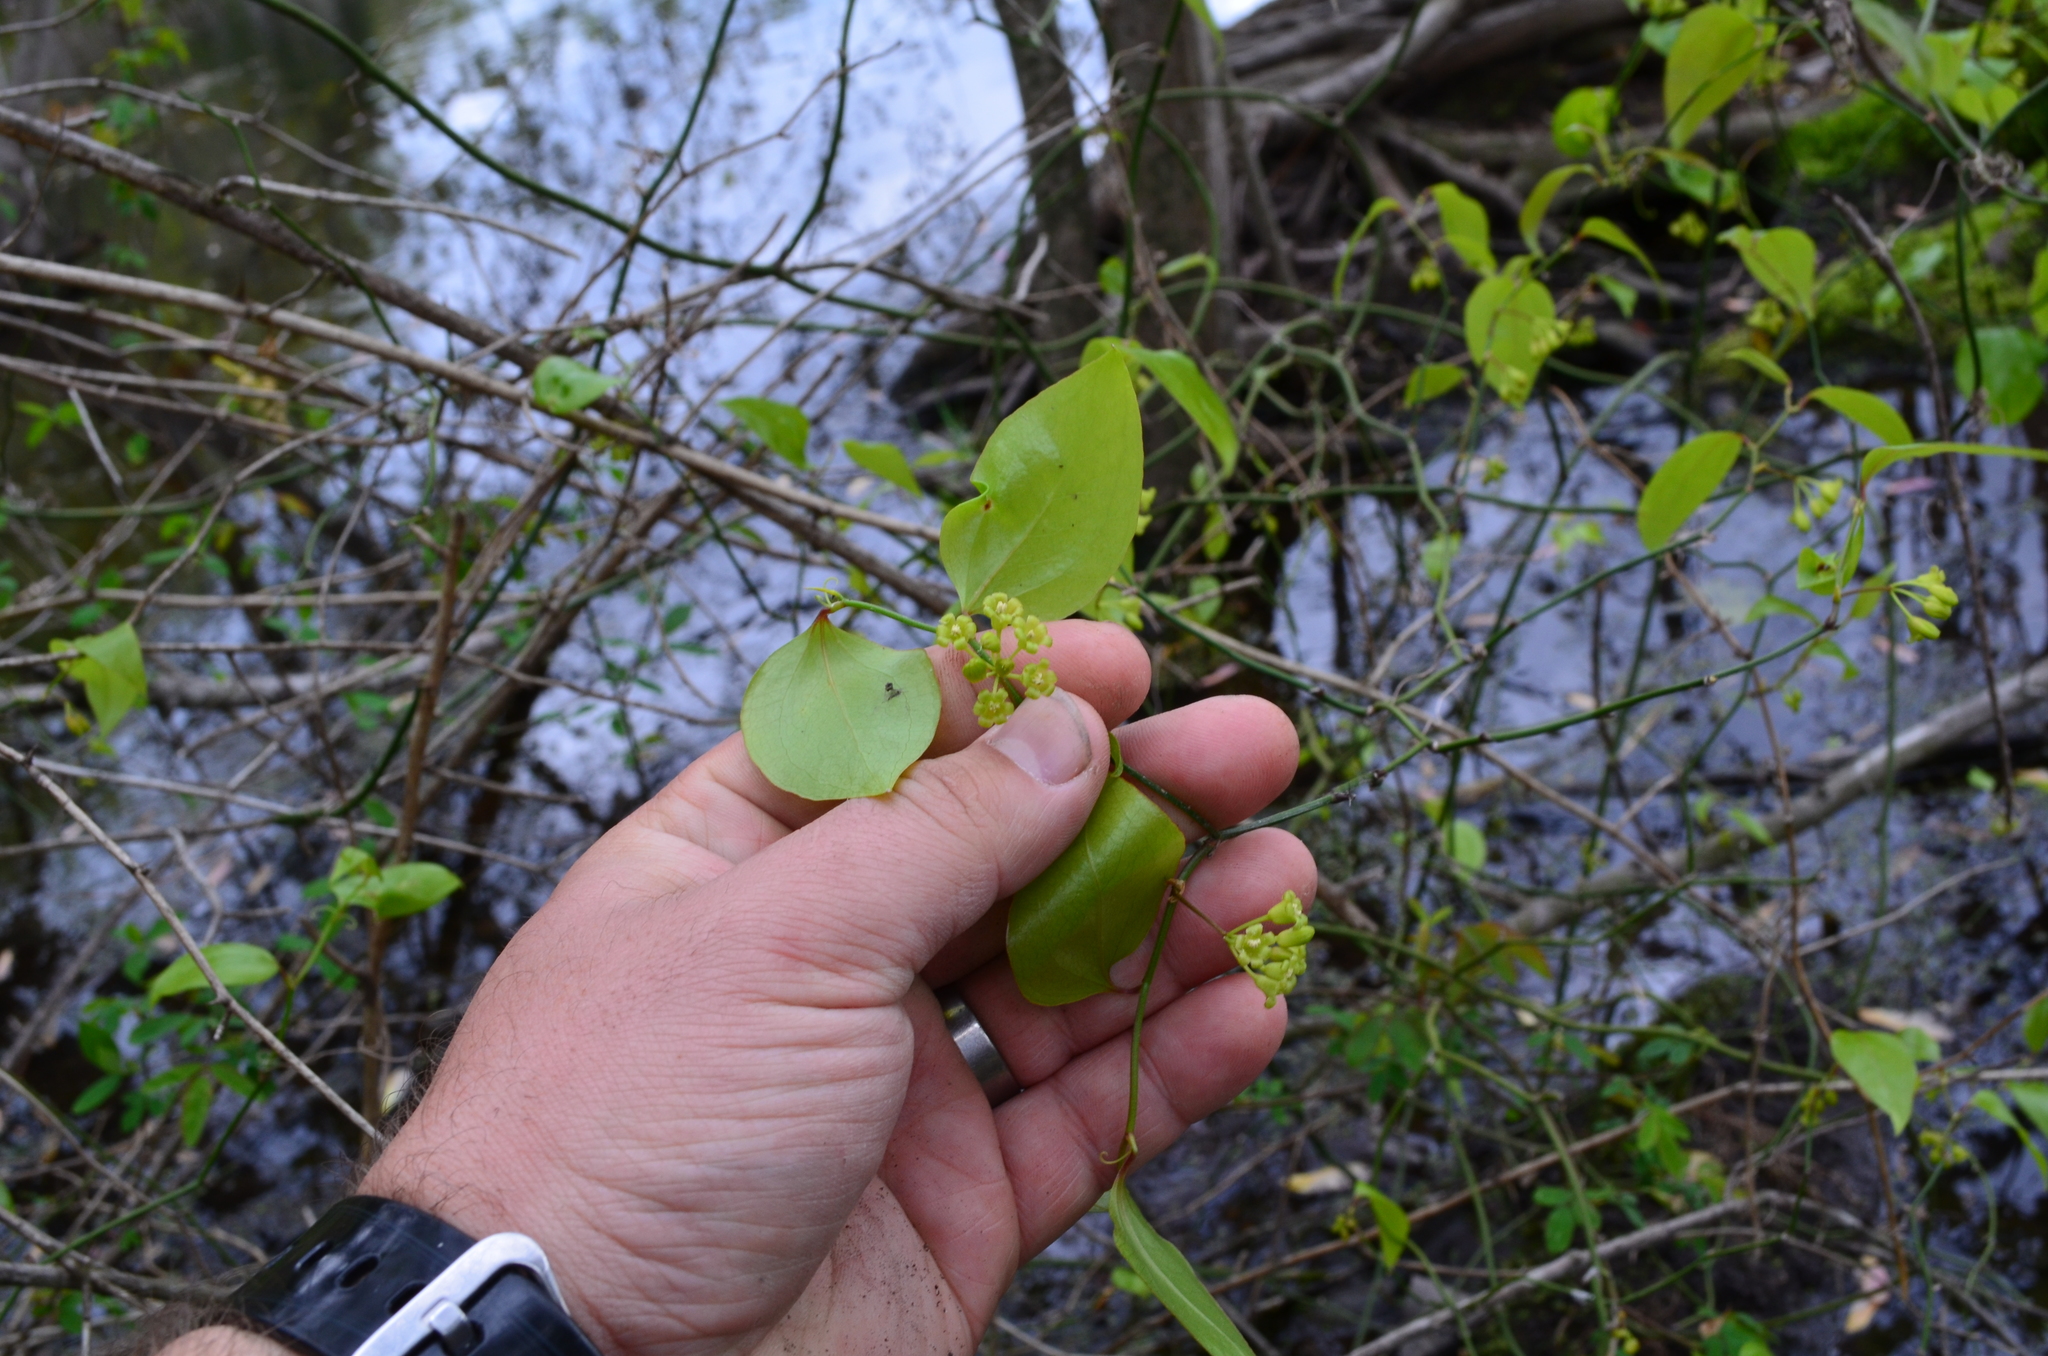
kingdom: Plantae
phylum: Tracheophyta
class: Liliopsida
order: Liliales
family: Smilacaceae
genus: Smilax
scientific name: Smilax rotundifolia
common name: Bullbriar
